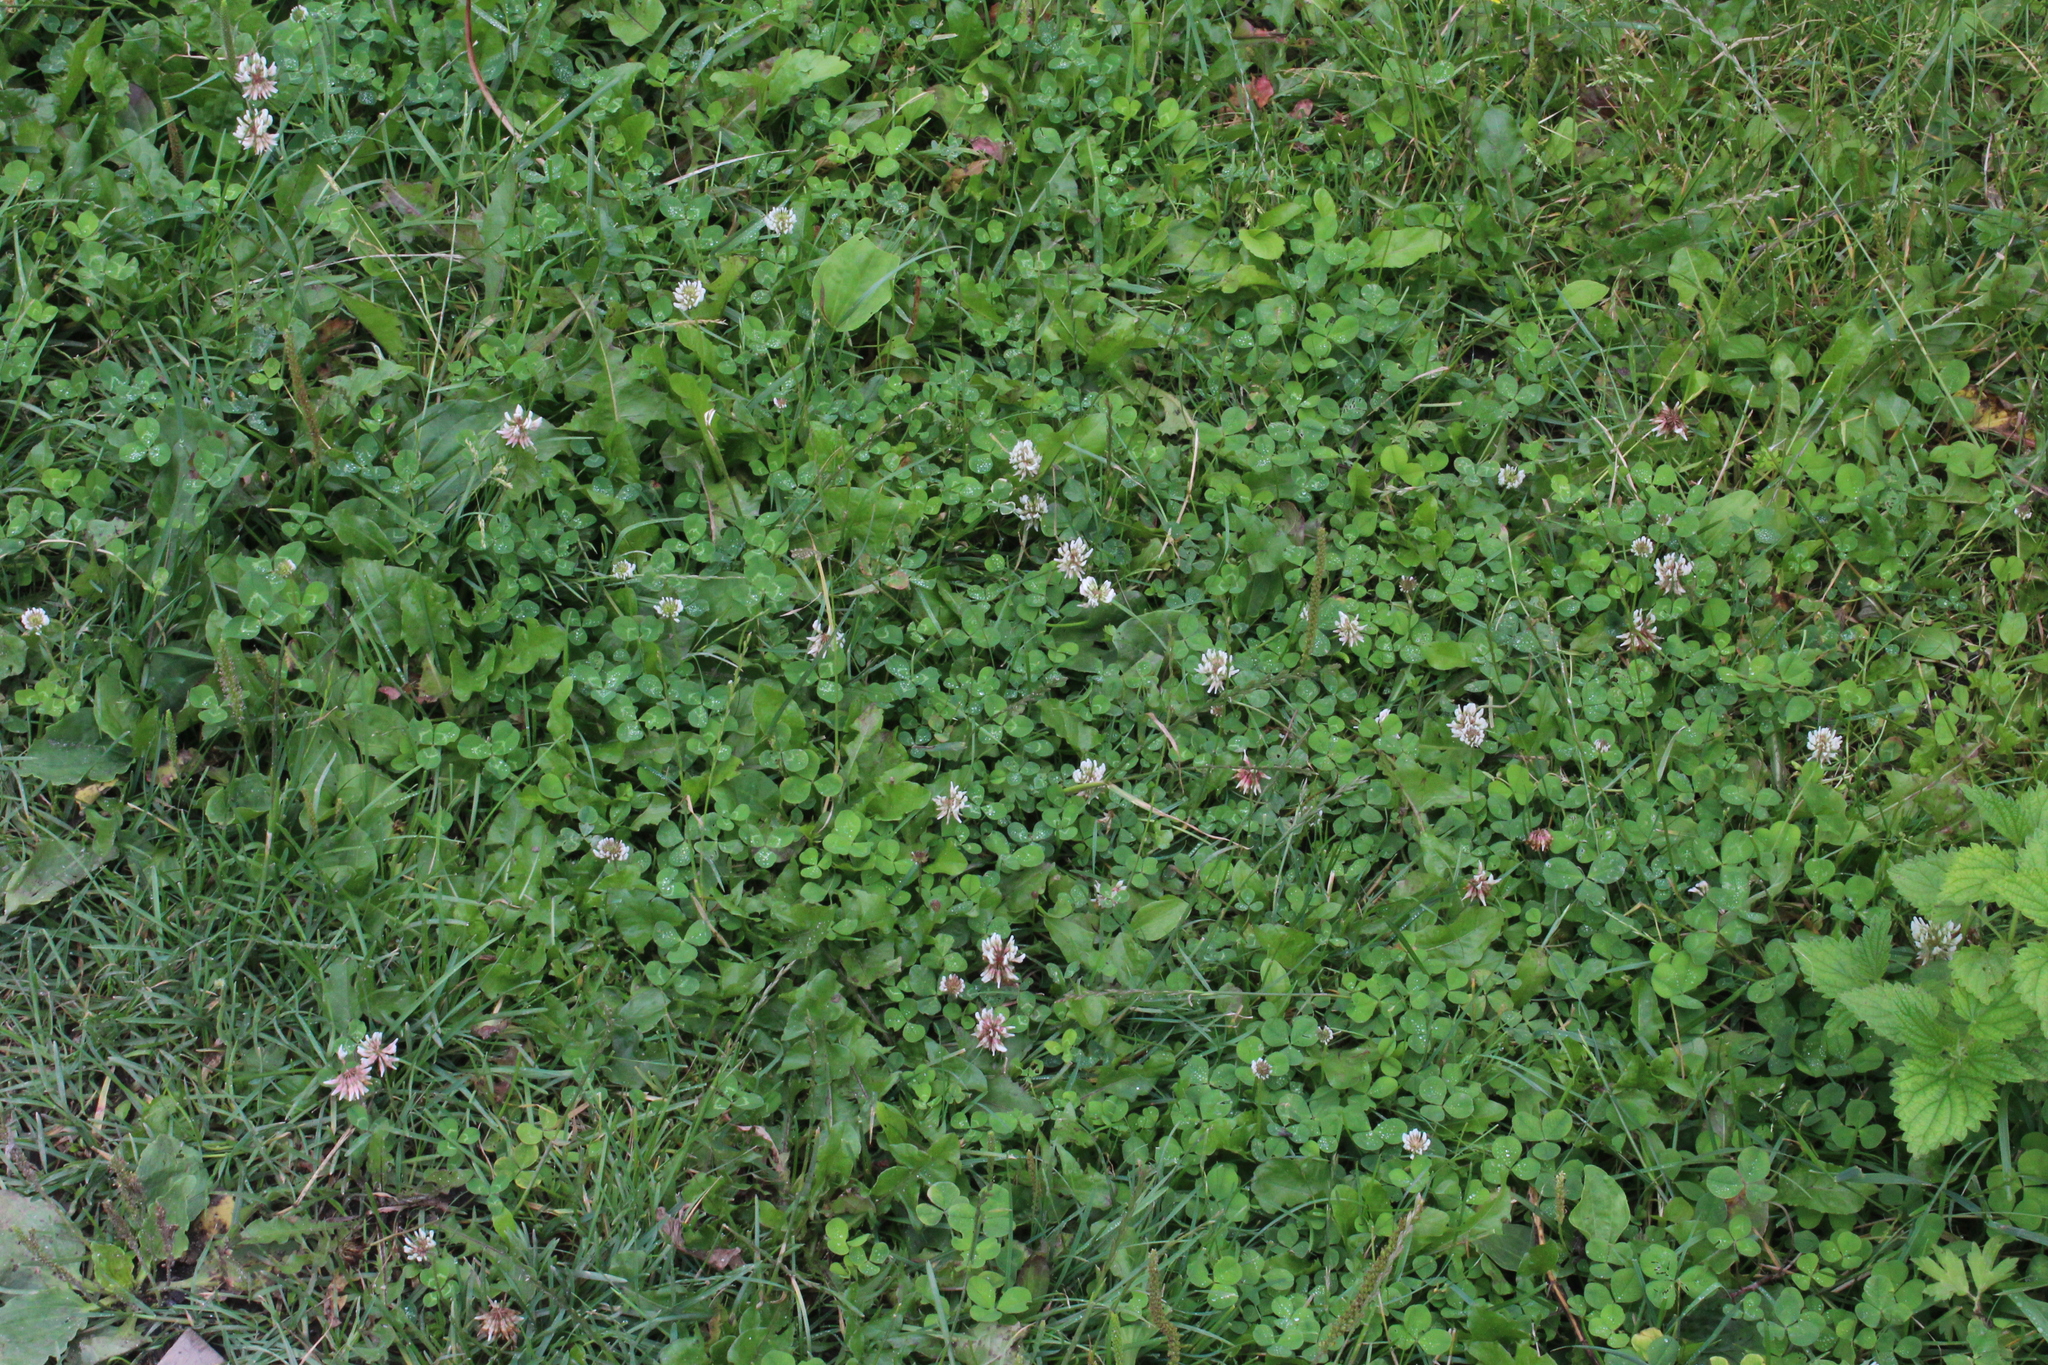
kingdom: Plantae
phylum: Tracheophyta
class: Magnoliopsida
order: Fabales
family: Fabaceae
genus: Trifolium
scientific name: Trifolium repens
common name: White clover
